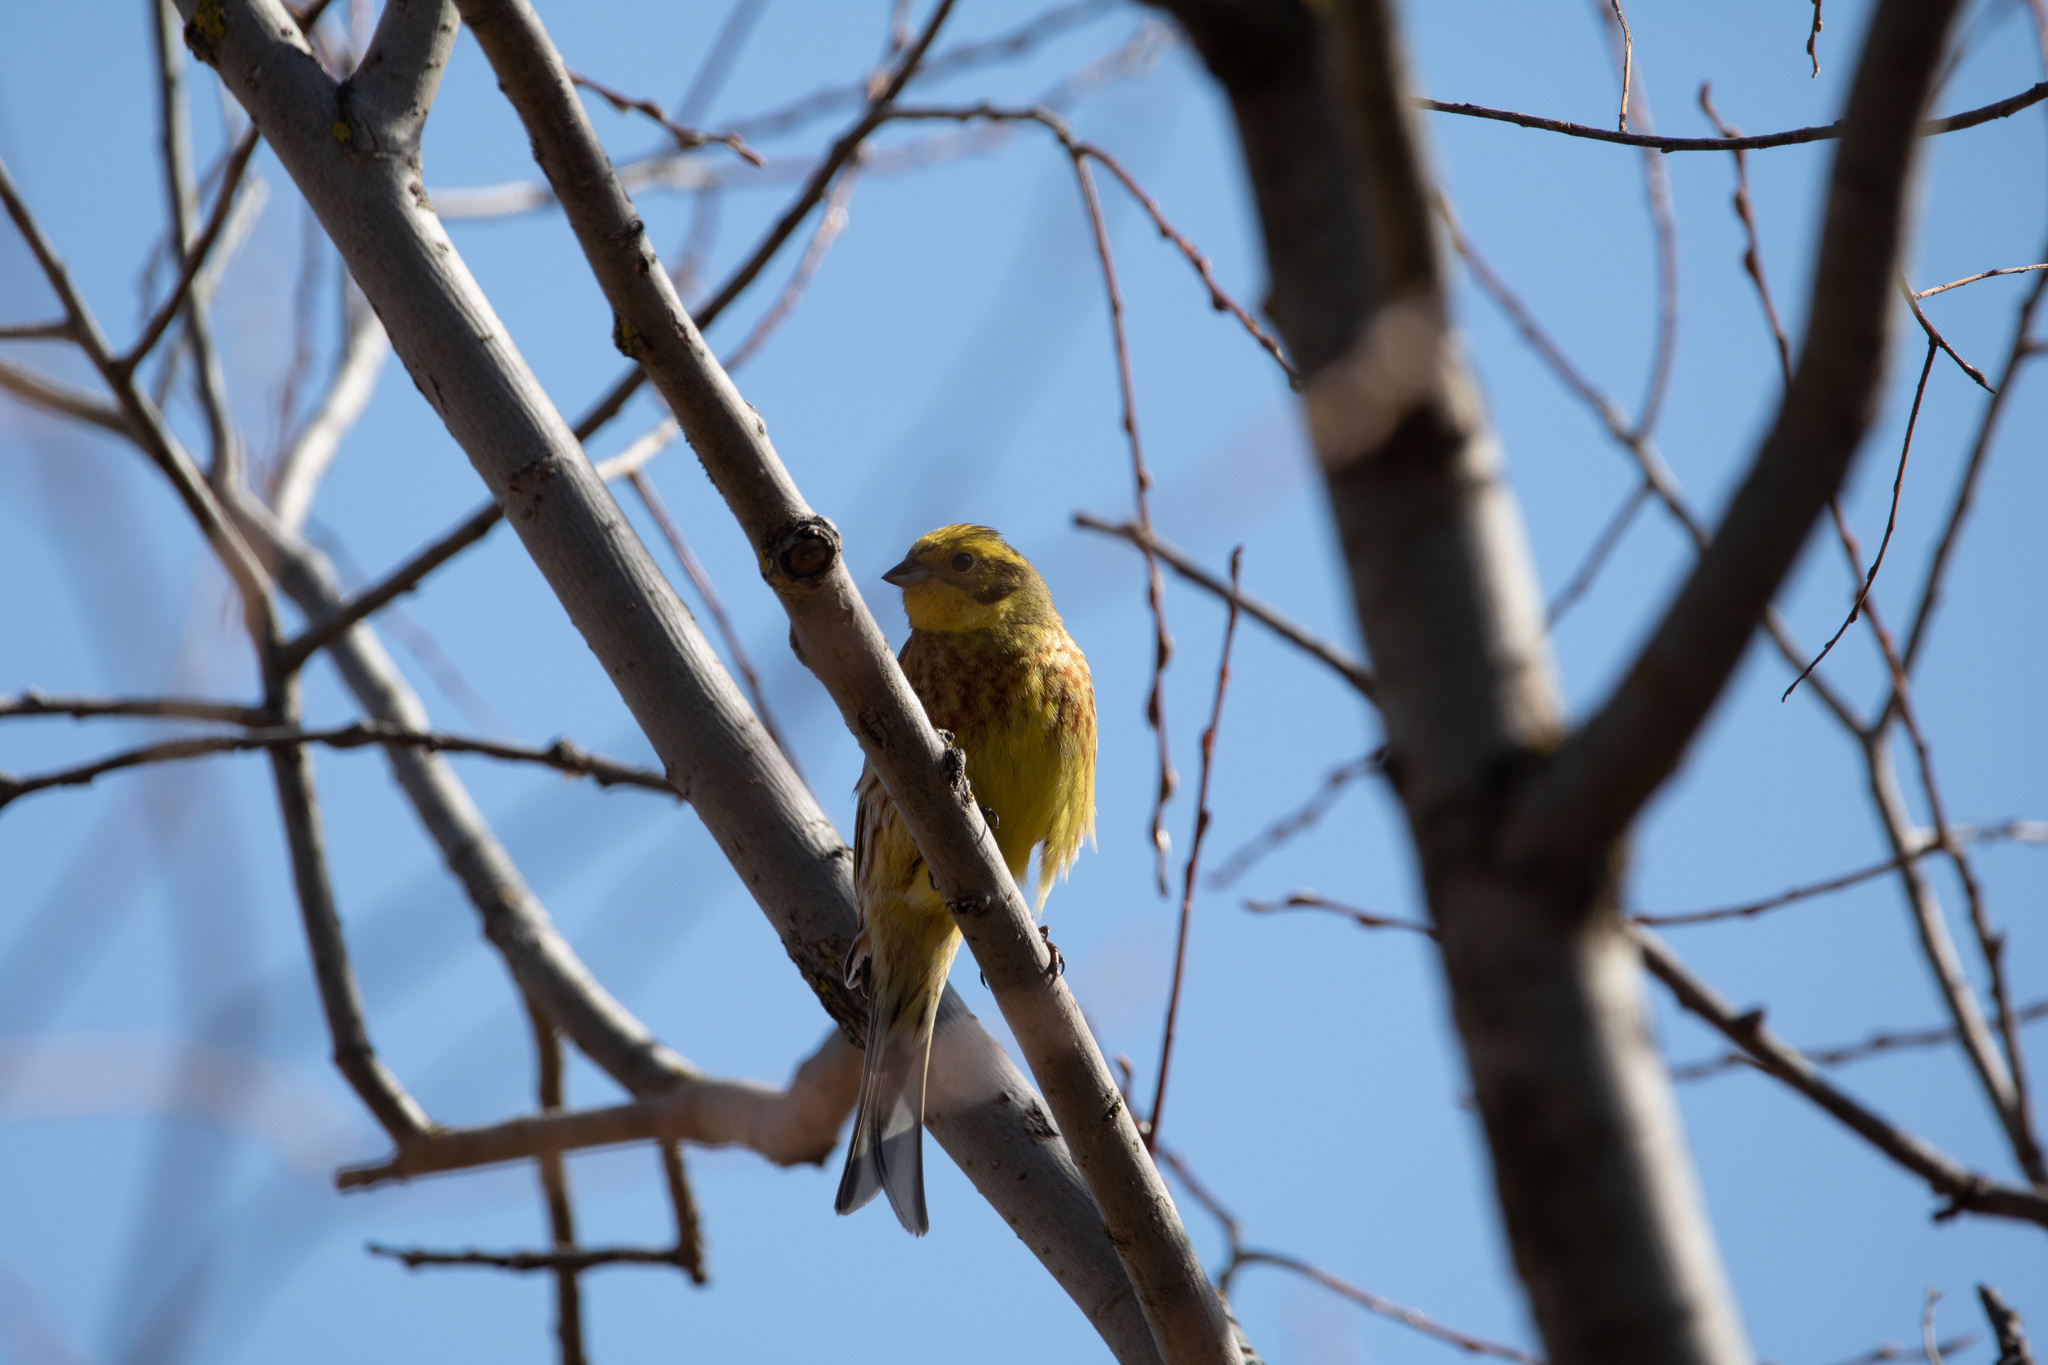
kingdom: Animalia
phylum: Chordata
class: Aves
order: Passeriformes
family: Emberizidae
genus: Emberiza
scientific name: Emberiza citrinella
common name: Yellowhammer
